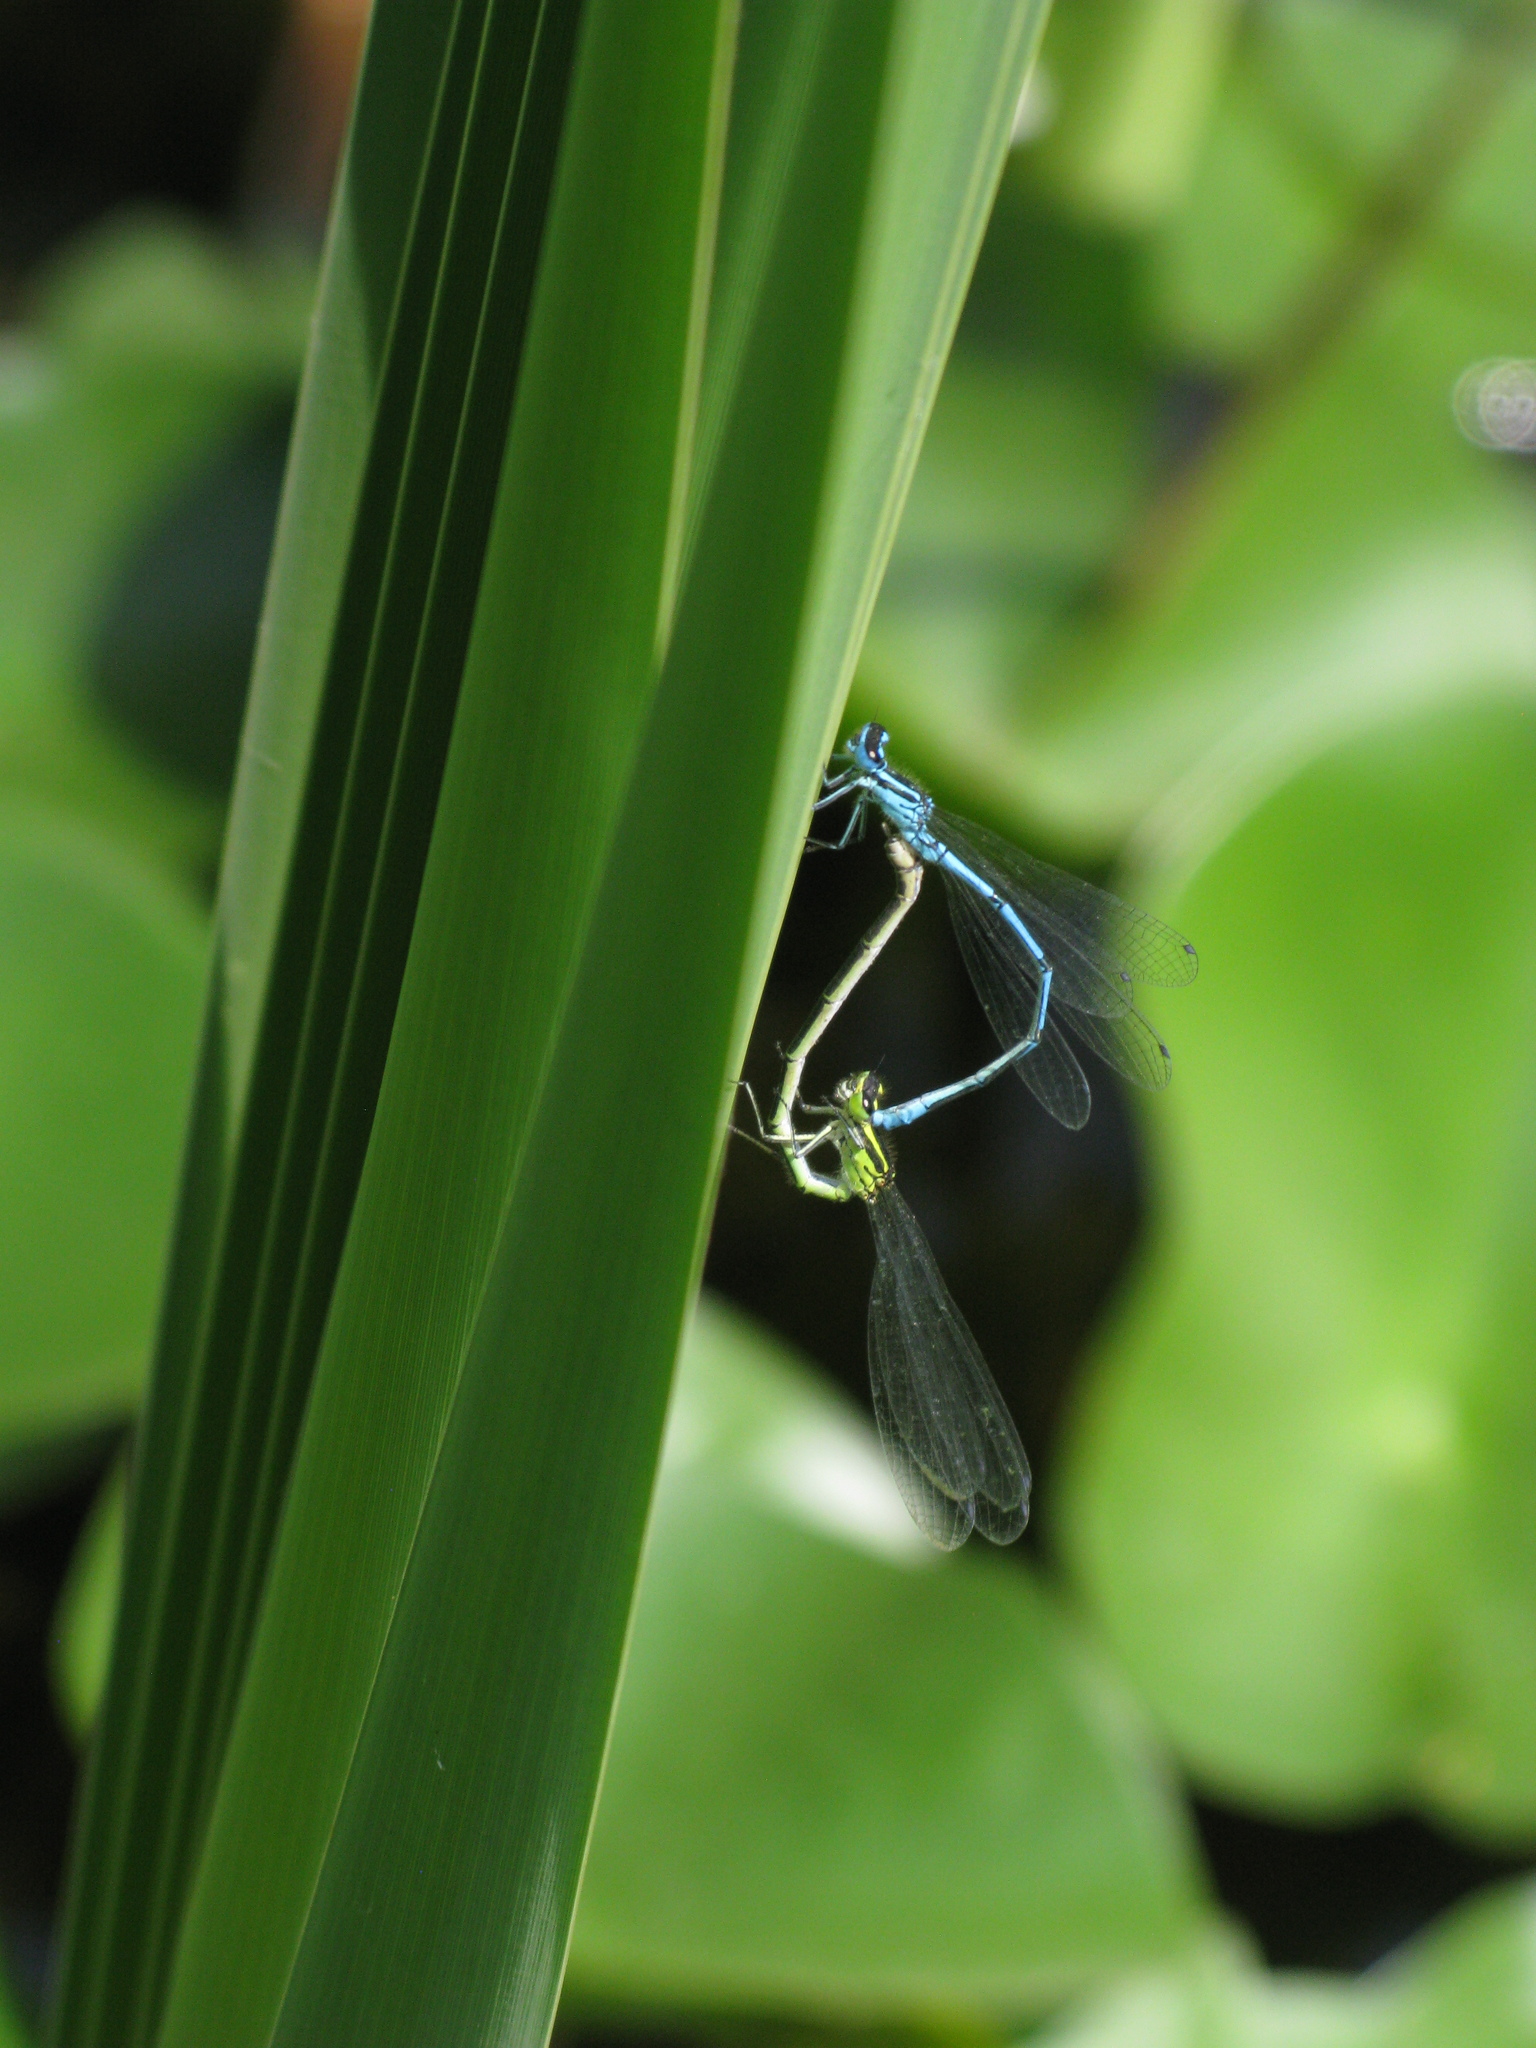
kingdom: Animalia
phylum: Arthropoda
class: Insecta
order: Odonata
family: Coenagrionidae
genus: Coenagrion
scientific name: Coenagrion puella
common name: Azure damselfly
